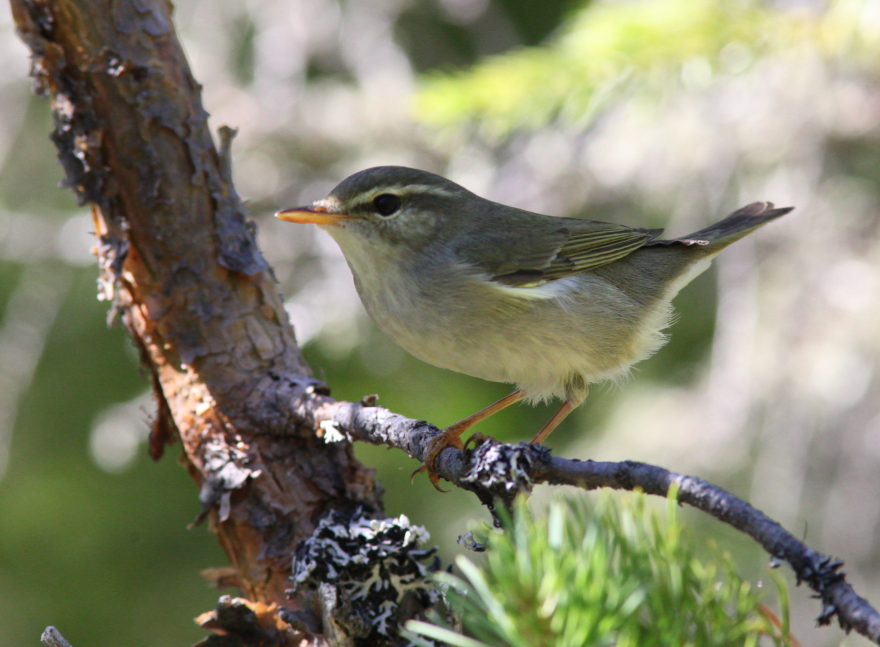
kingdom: Animalia
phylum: Chordata
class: Aves
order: Passeriformes
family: Phylloscopidae
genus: Phylloscopus
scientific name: Phylloscopus borealis
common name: Arctic warbler
